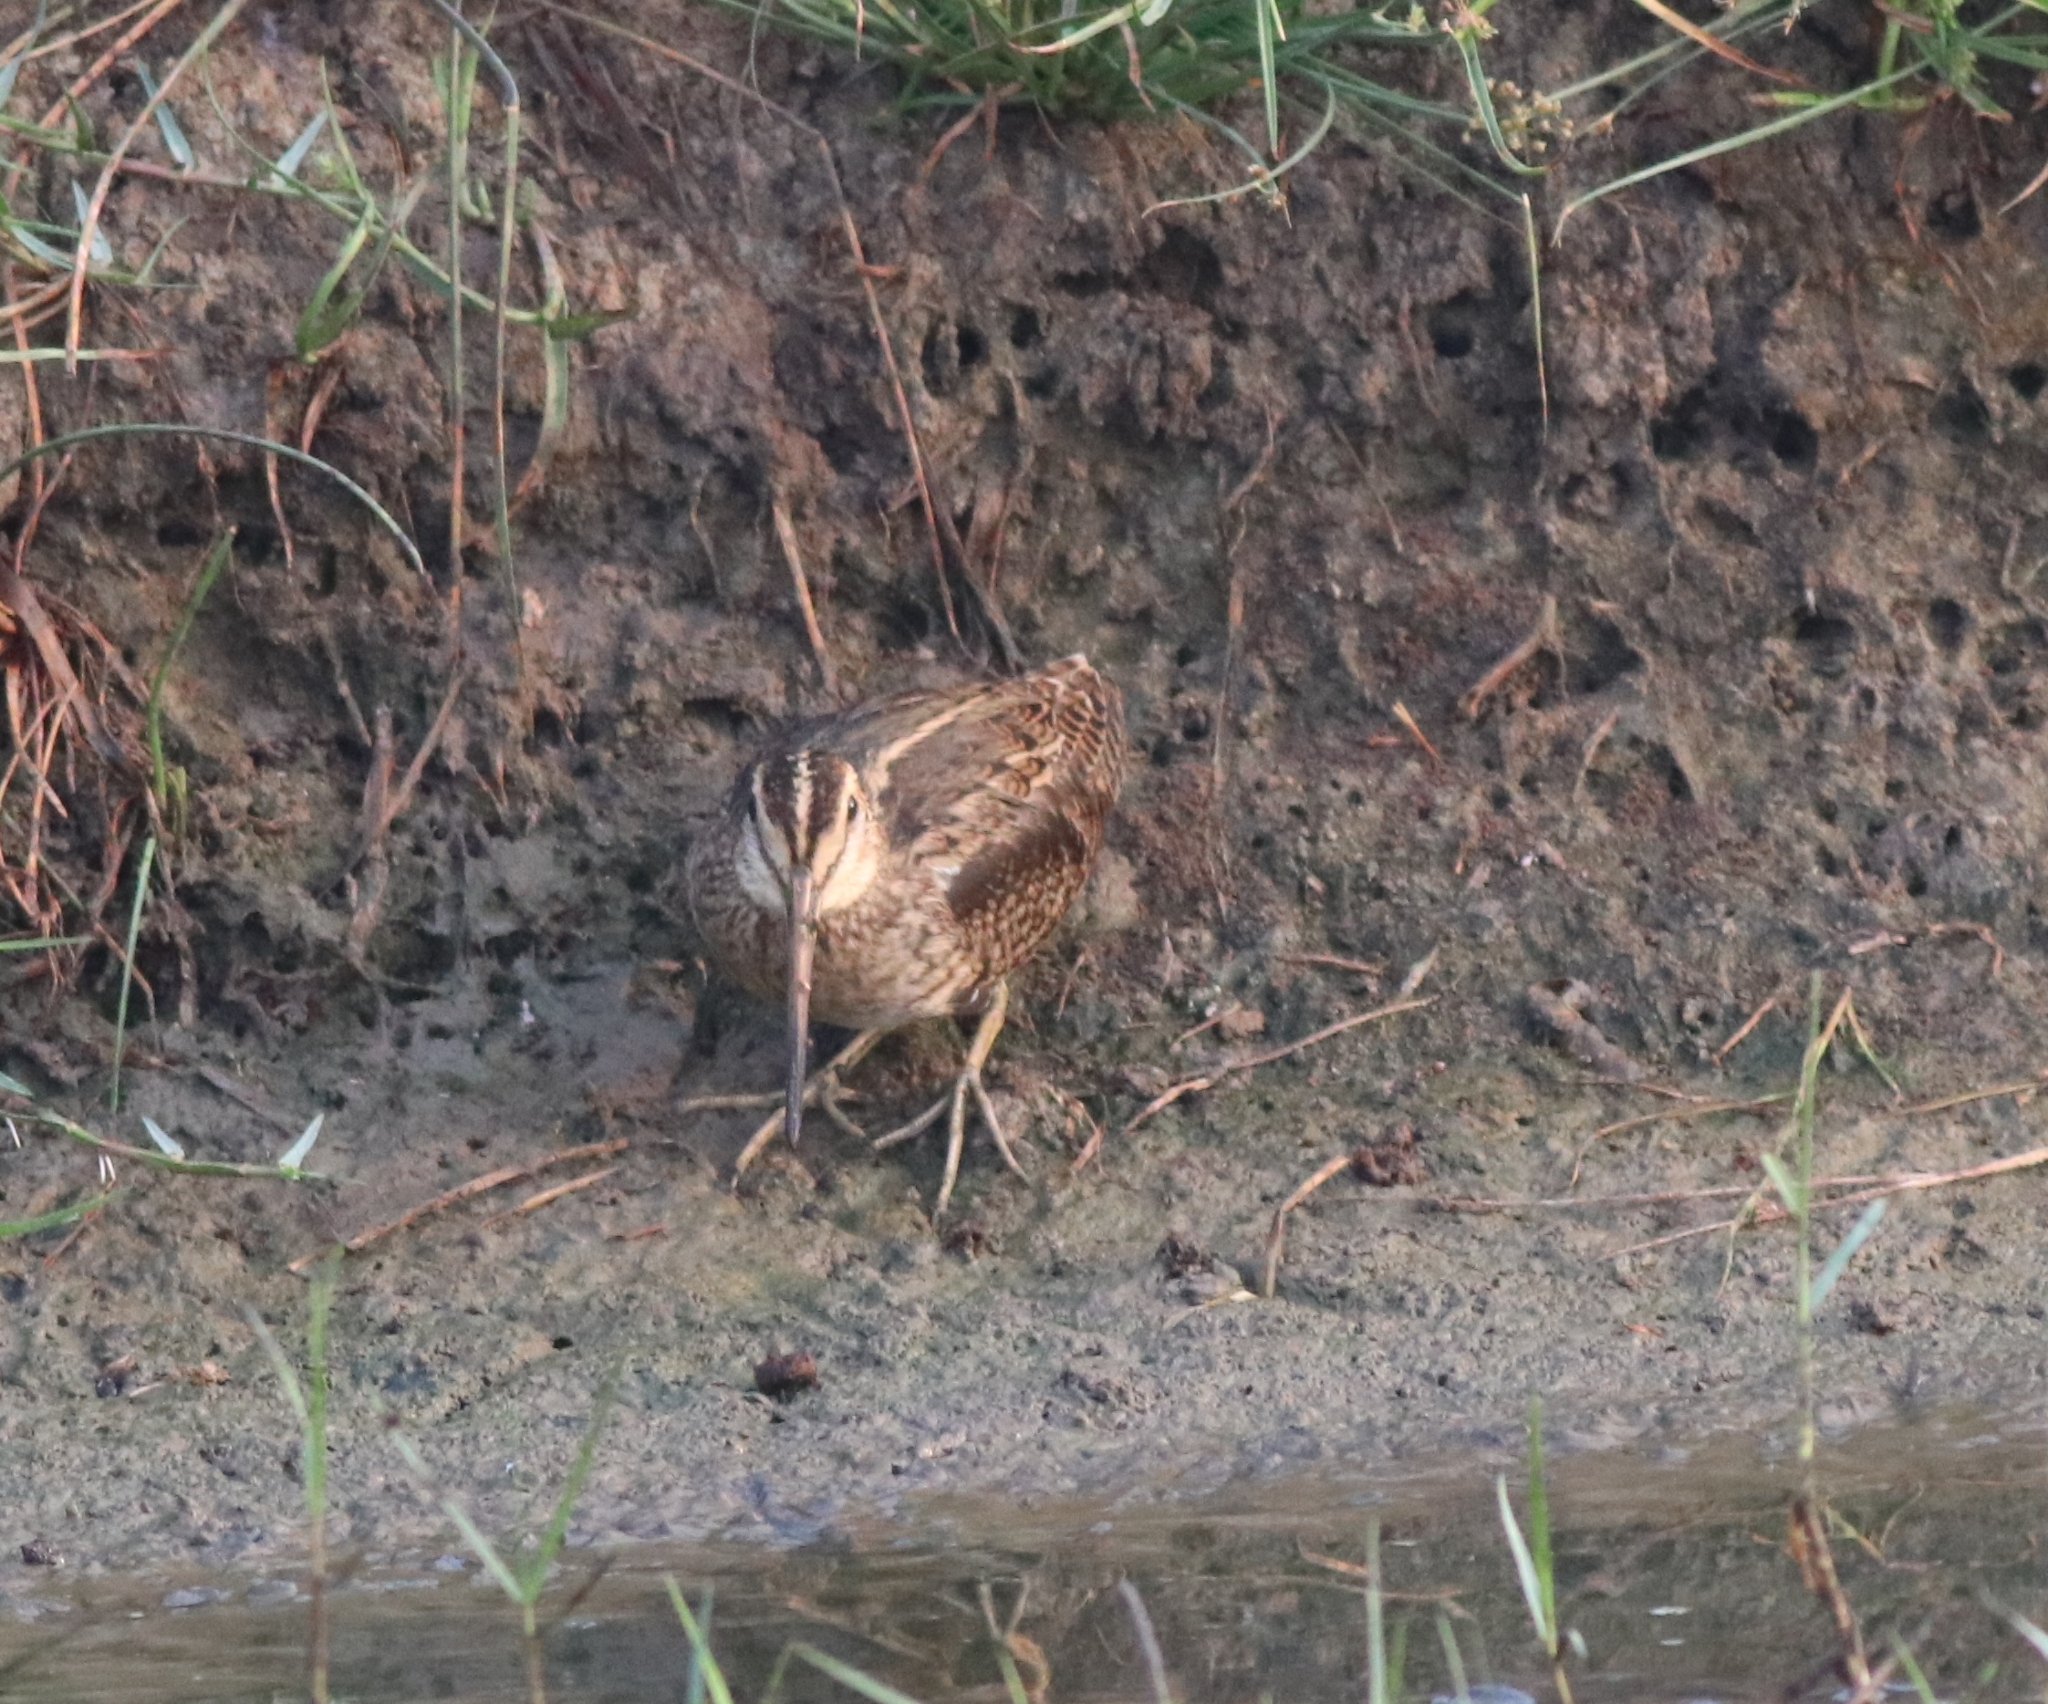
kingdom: Animalia
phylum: Chordata
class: Aves
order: Charadriiformes
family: Scolopacidae
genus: Gallinago
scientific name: Gallinago gallinago
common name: Common snipe
